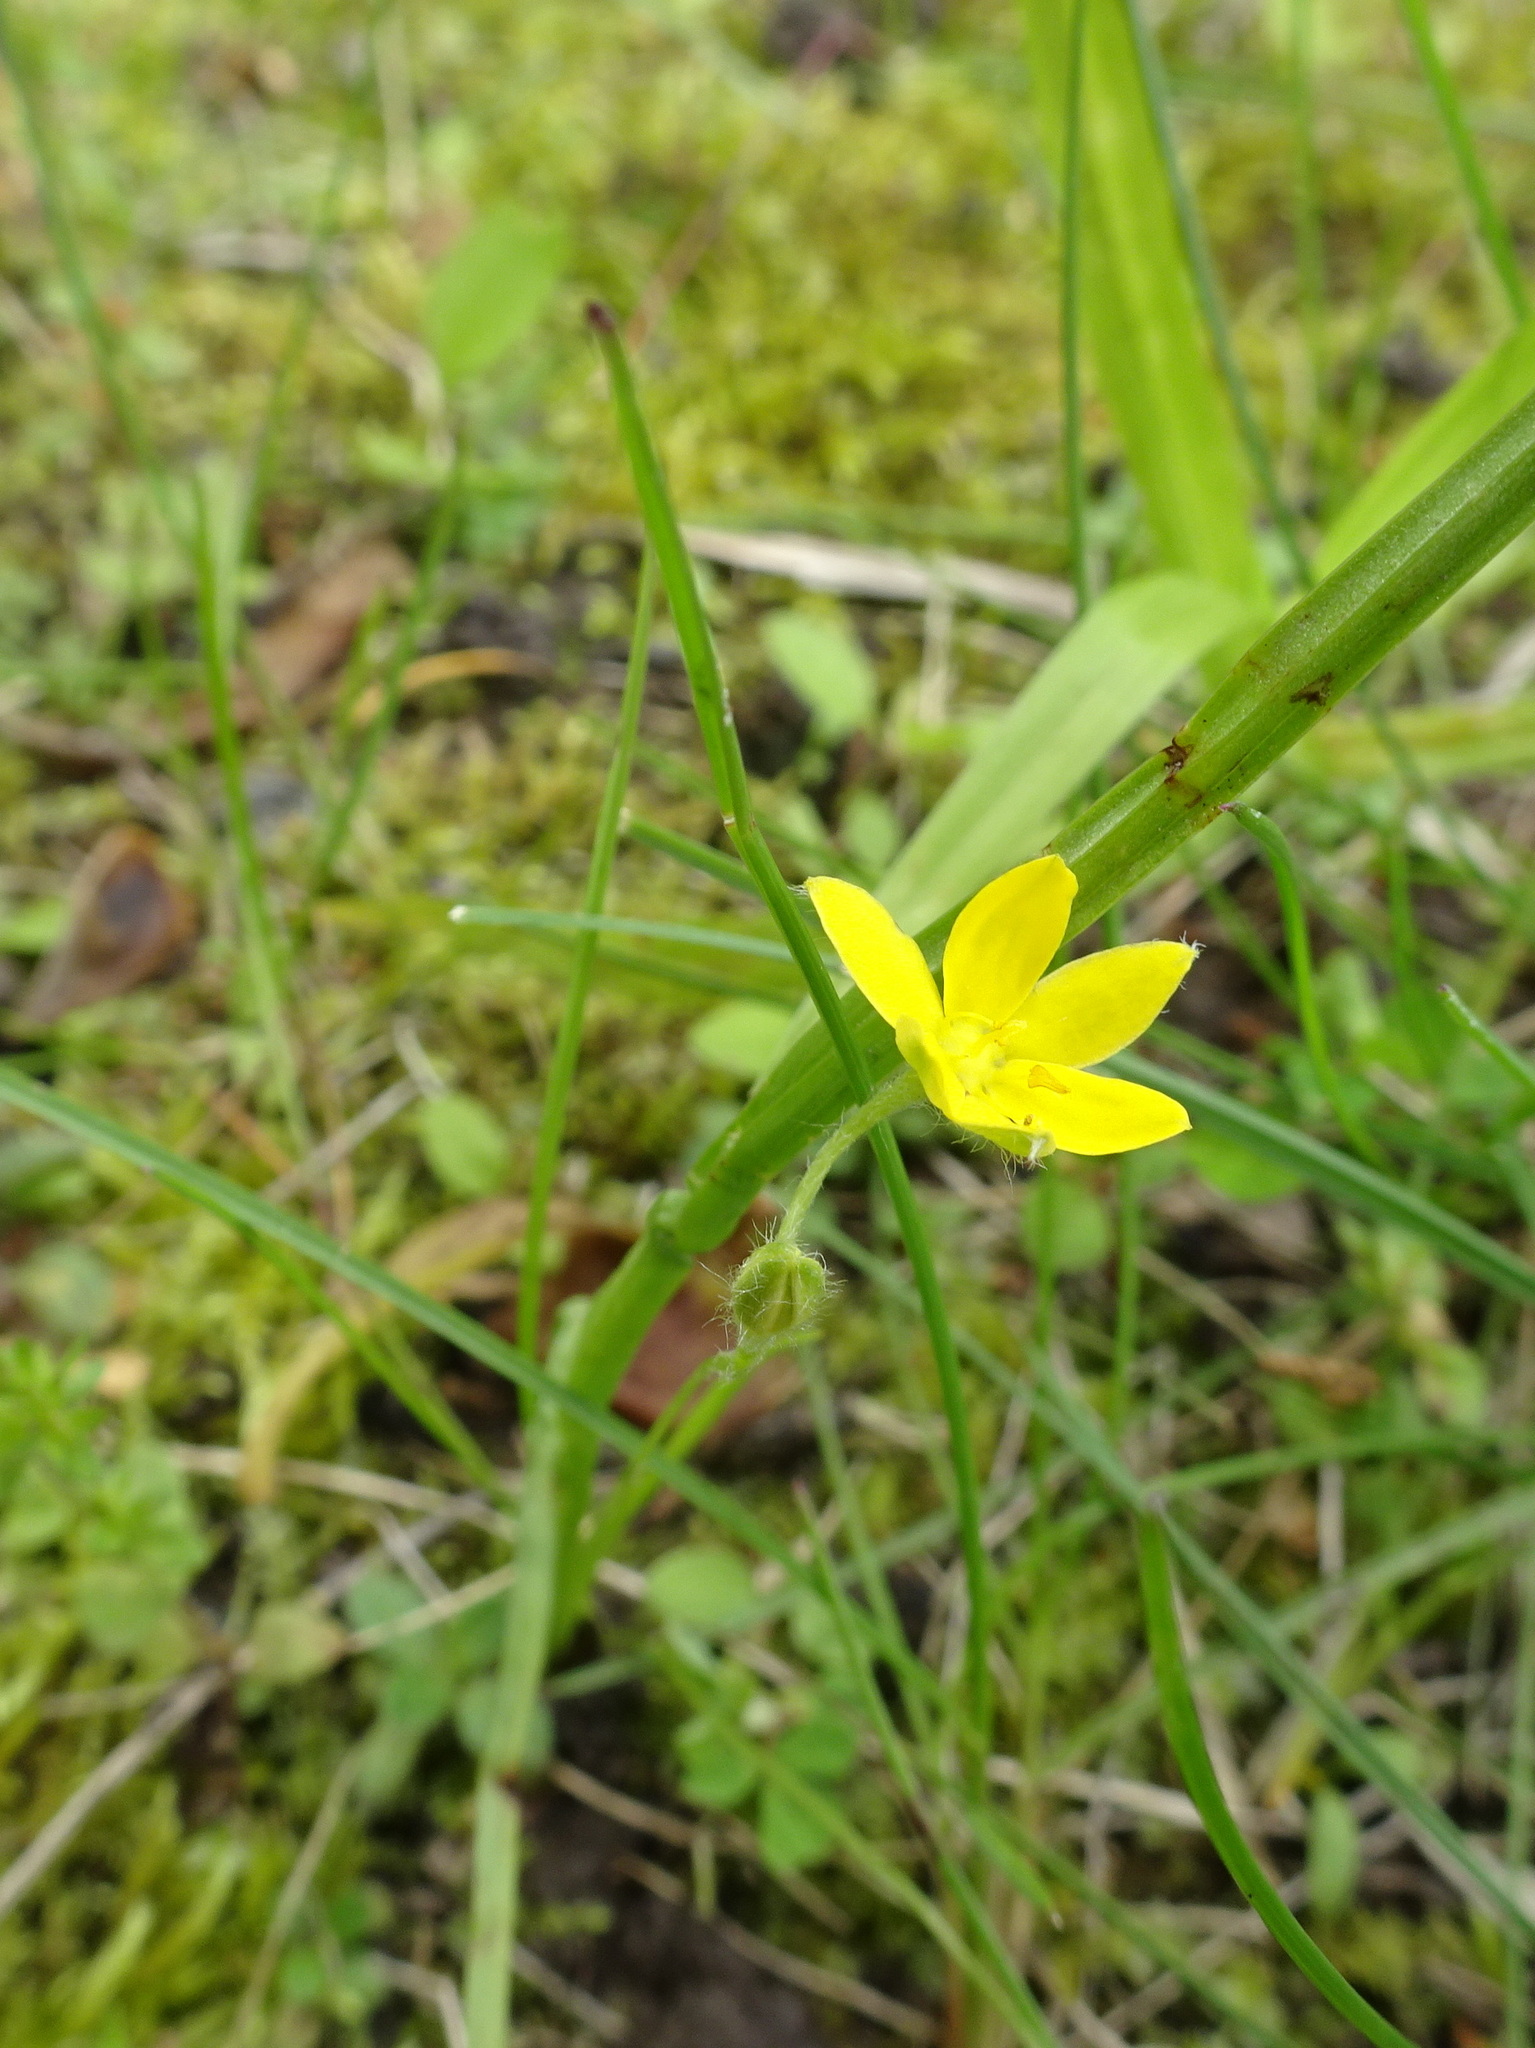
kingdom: Plantae
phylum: Tracheophyta
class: Liliopsida
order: Asparagales
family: Hypoxidaceae
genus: Hypoxis
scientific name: Hypoxis hirsuta
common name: Common goldstar
